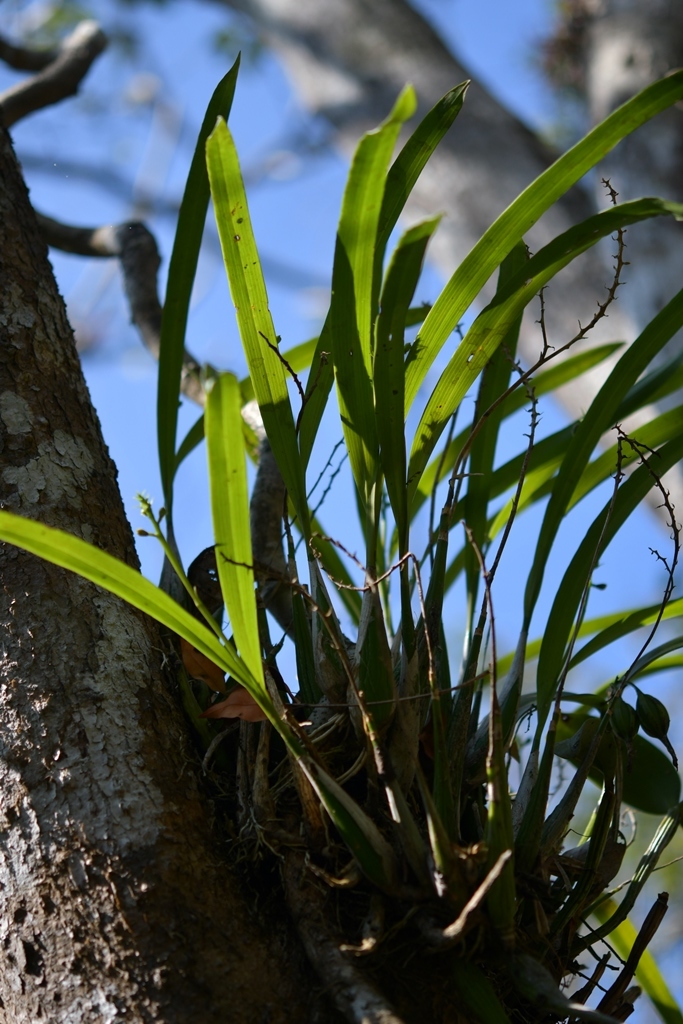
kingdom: Plantae
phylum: Tracheophyta
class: Liliopsida
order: Asparagales
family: Orchidaceae
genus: Prosthechea
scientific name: Prosthechea guttata
